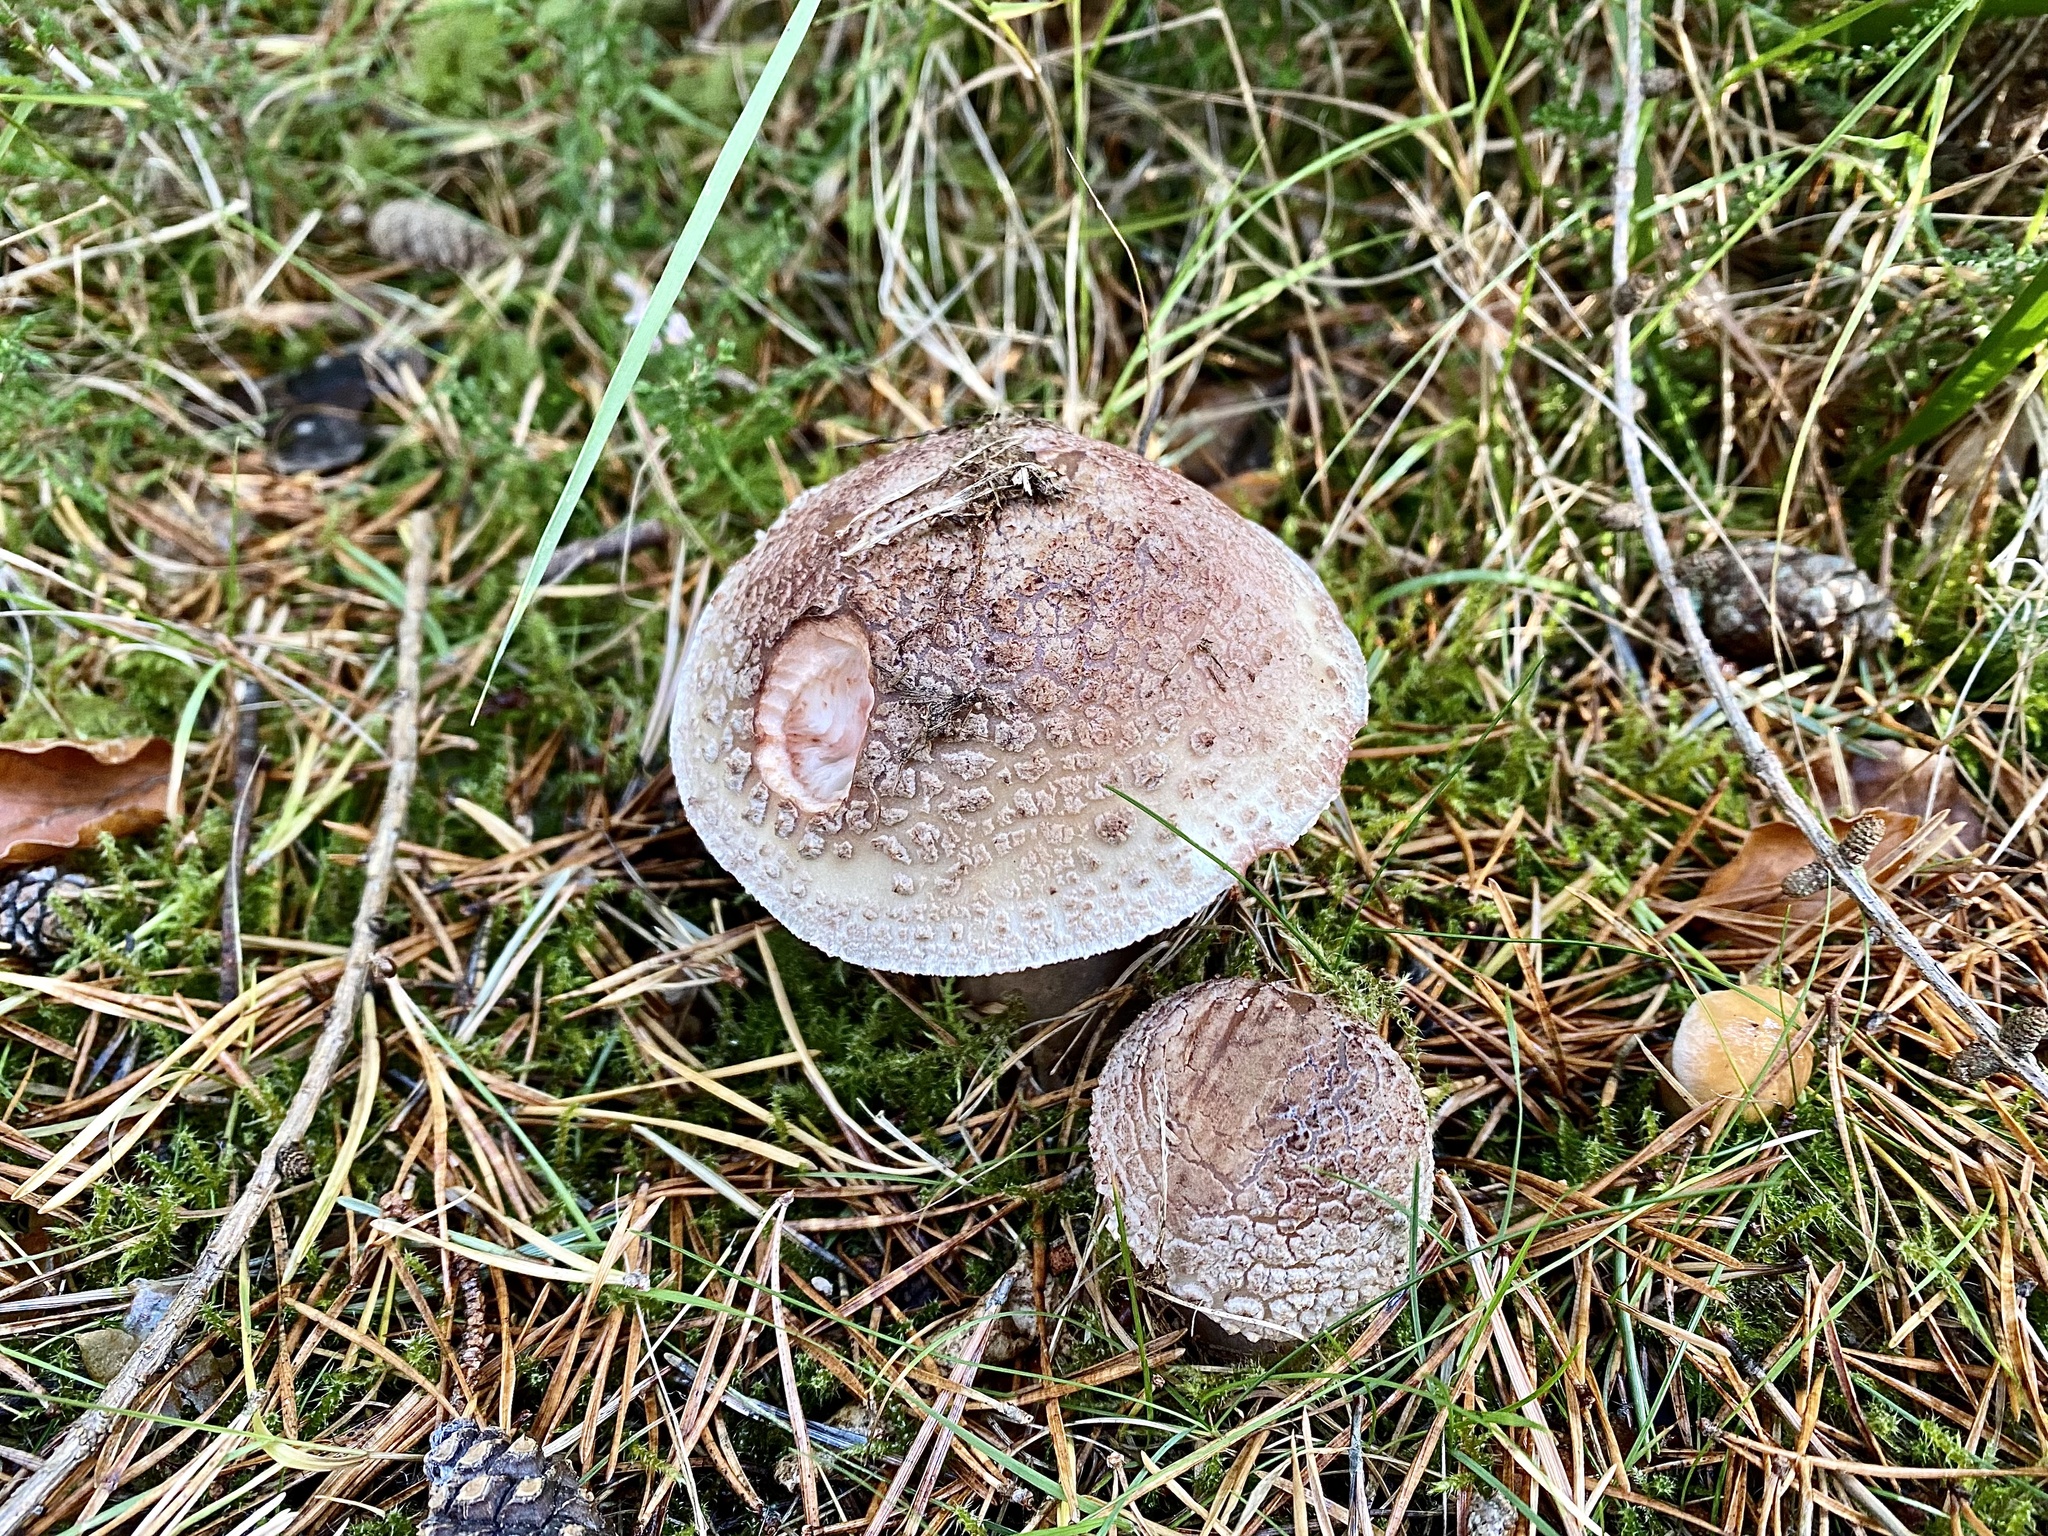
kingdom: Fungi
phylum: Basidiomycota
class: Agaricomycetes
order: Agaricales
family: Amanitaceae
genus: Amanita
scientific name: Amanita rubescens
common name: Blusher
